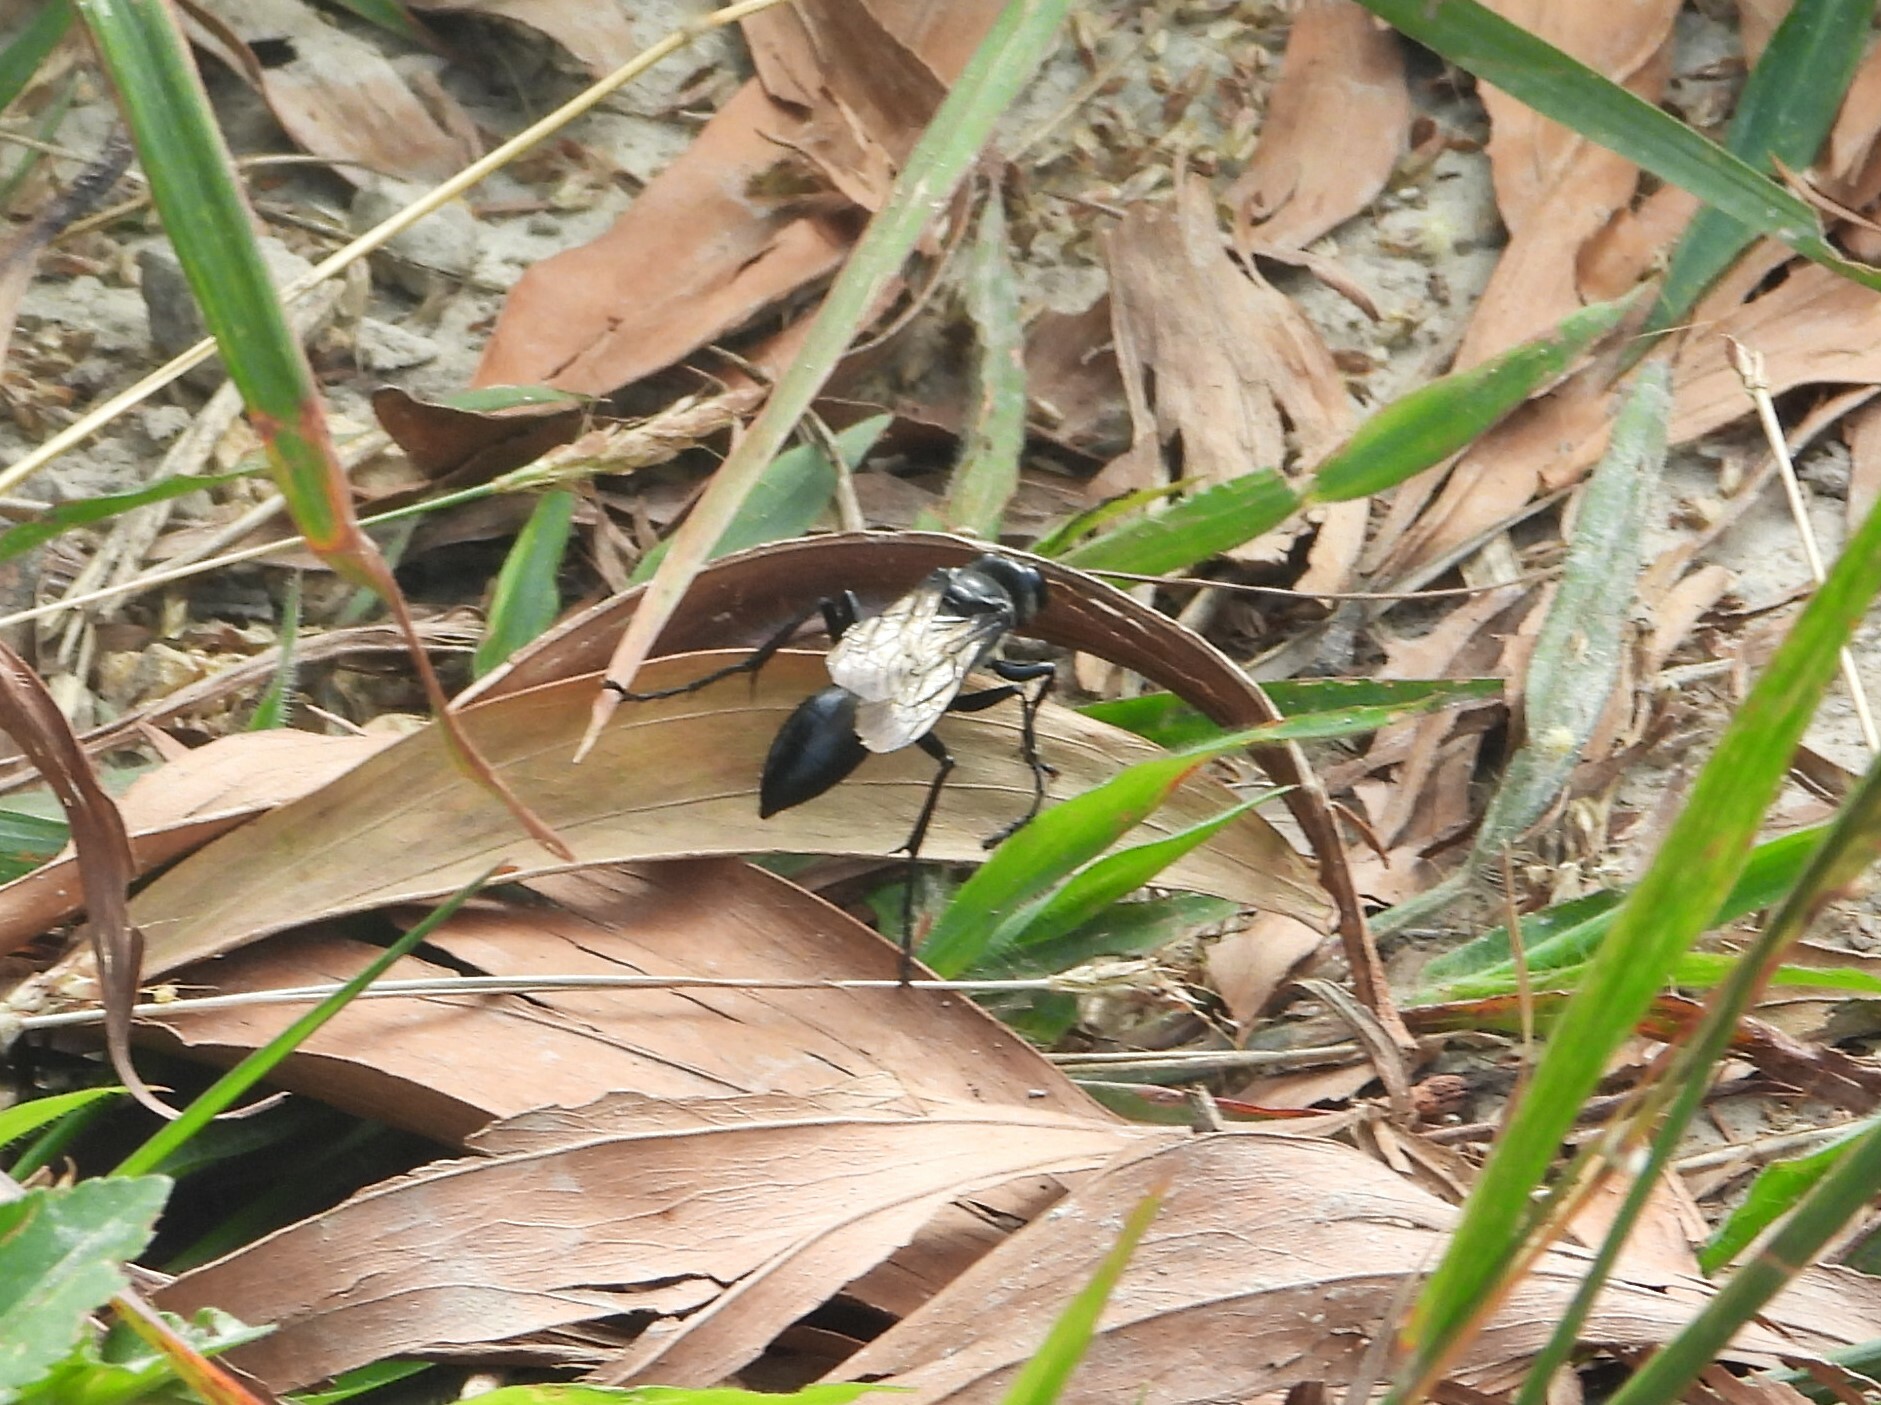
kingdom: Animalia
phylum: Arthropoda
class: Insecta
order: Hymenoptera
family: Sphecidae
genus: Sphex
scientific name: Sphex argentatus
